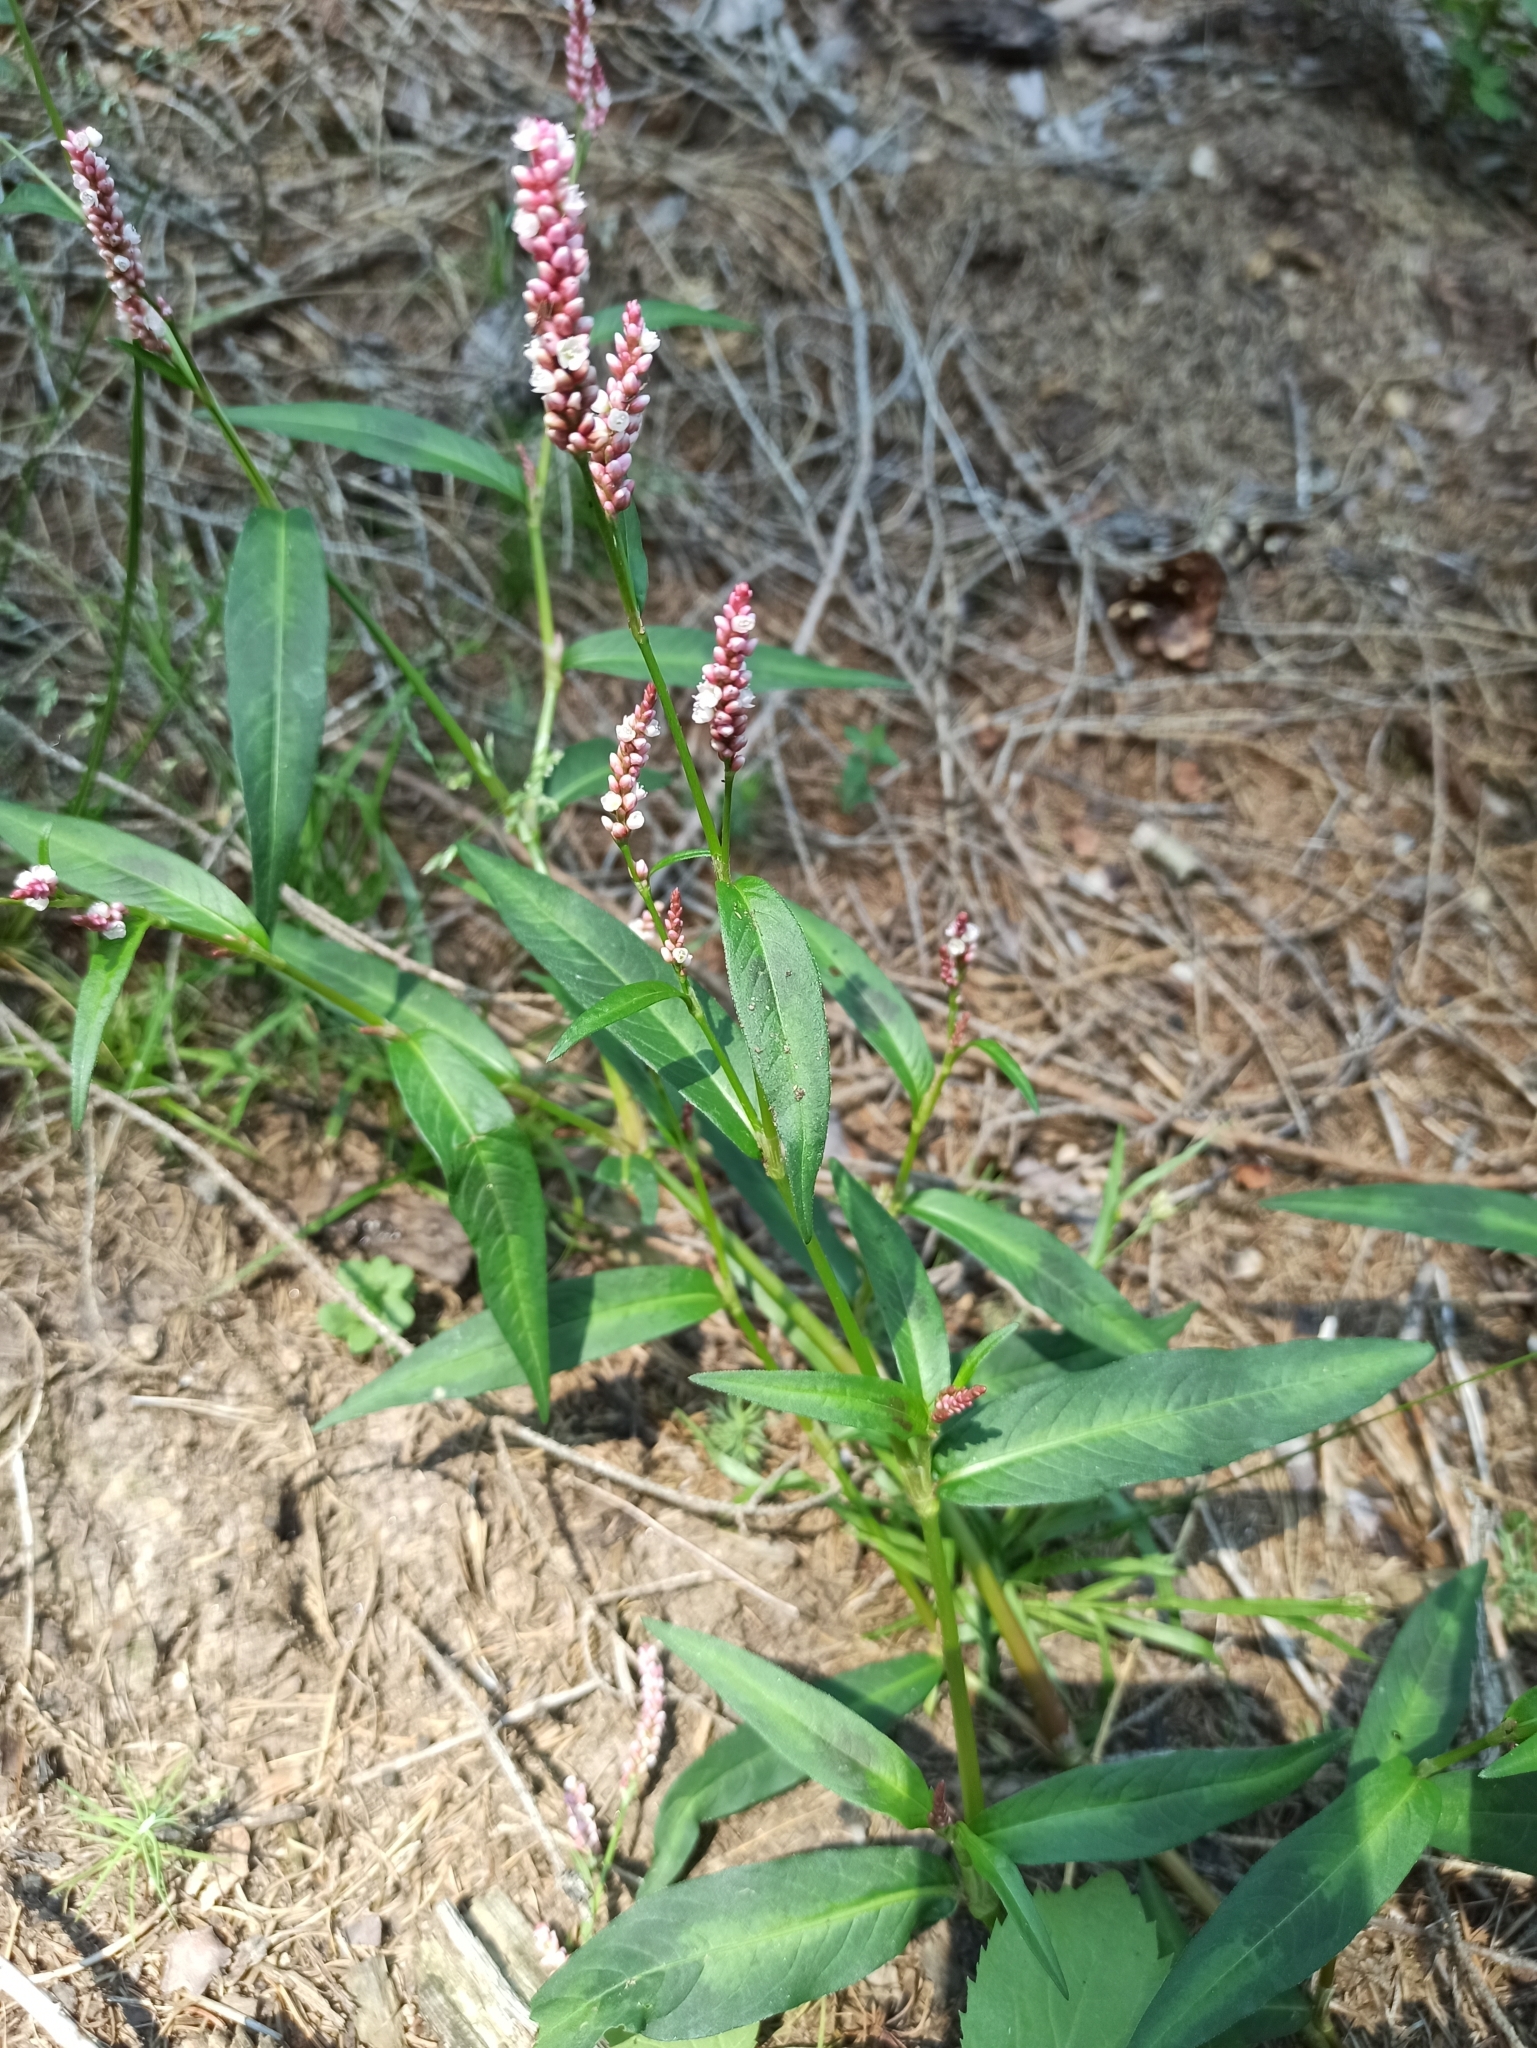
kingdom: Plantae
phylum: Tracheophyta
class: Magnoliopsida
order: Caryophyllales
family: Polygonaceae
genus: Persicaria
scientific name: Persicaria maculosa
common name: Redshank
